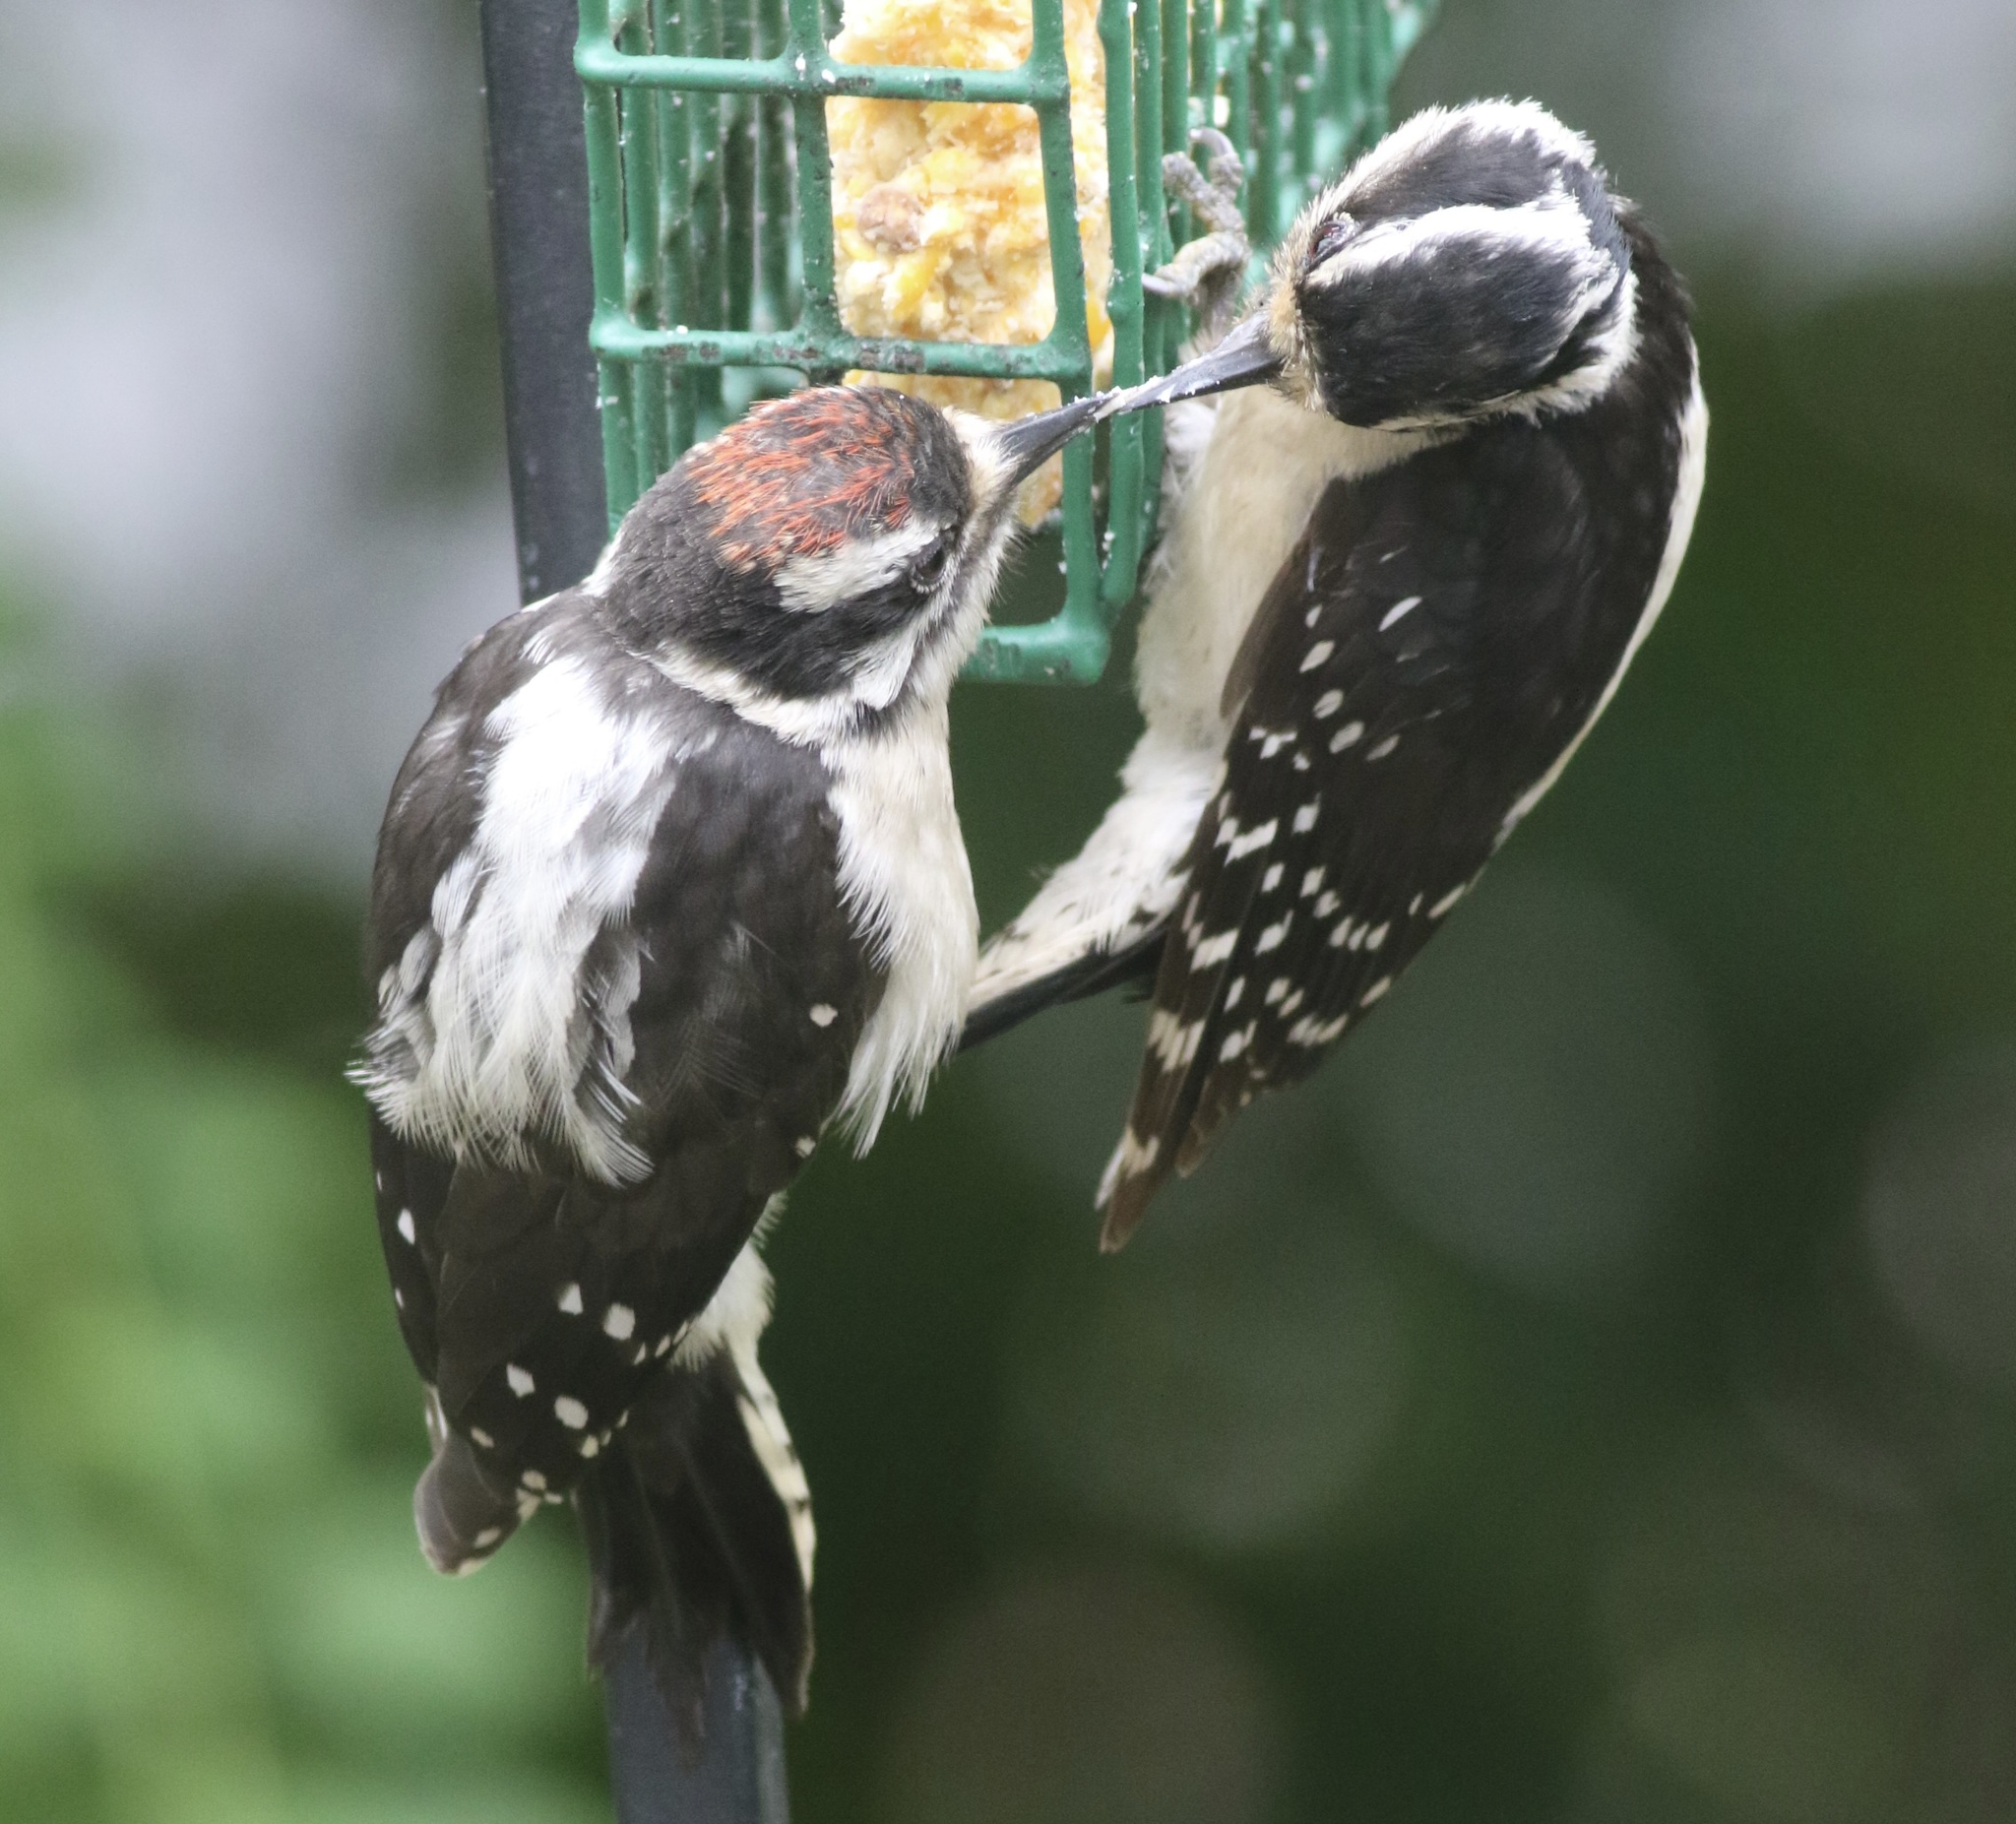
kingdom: Animalia
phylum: Chordata
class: Aves
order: Piciformes
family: Picidae
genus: Dryobates
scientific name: Dryobates pubescens
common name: Downy woodpecker
